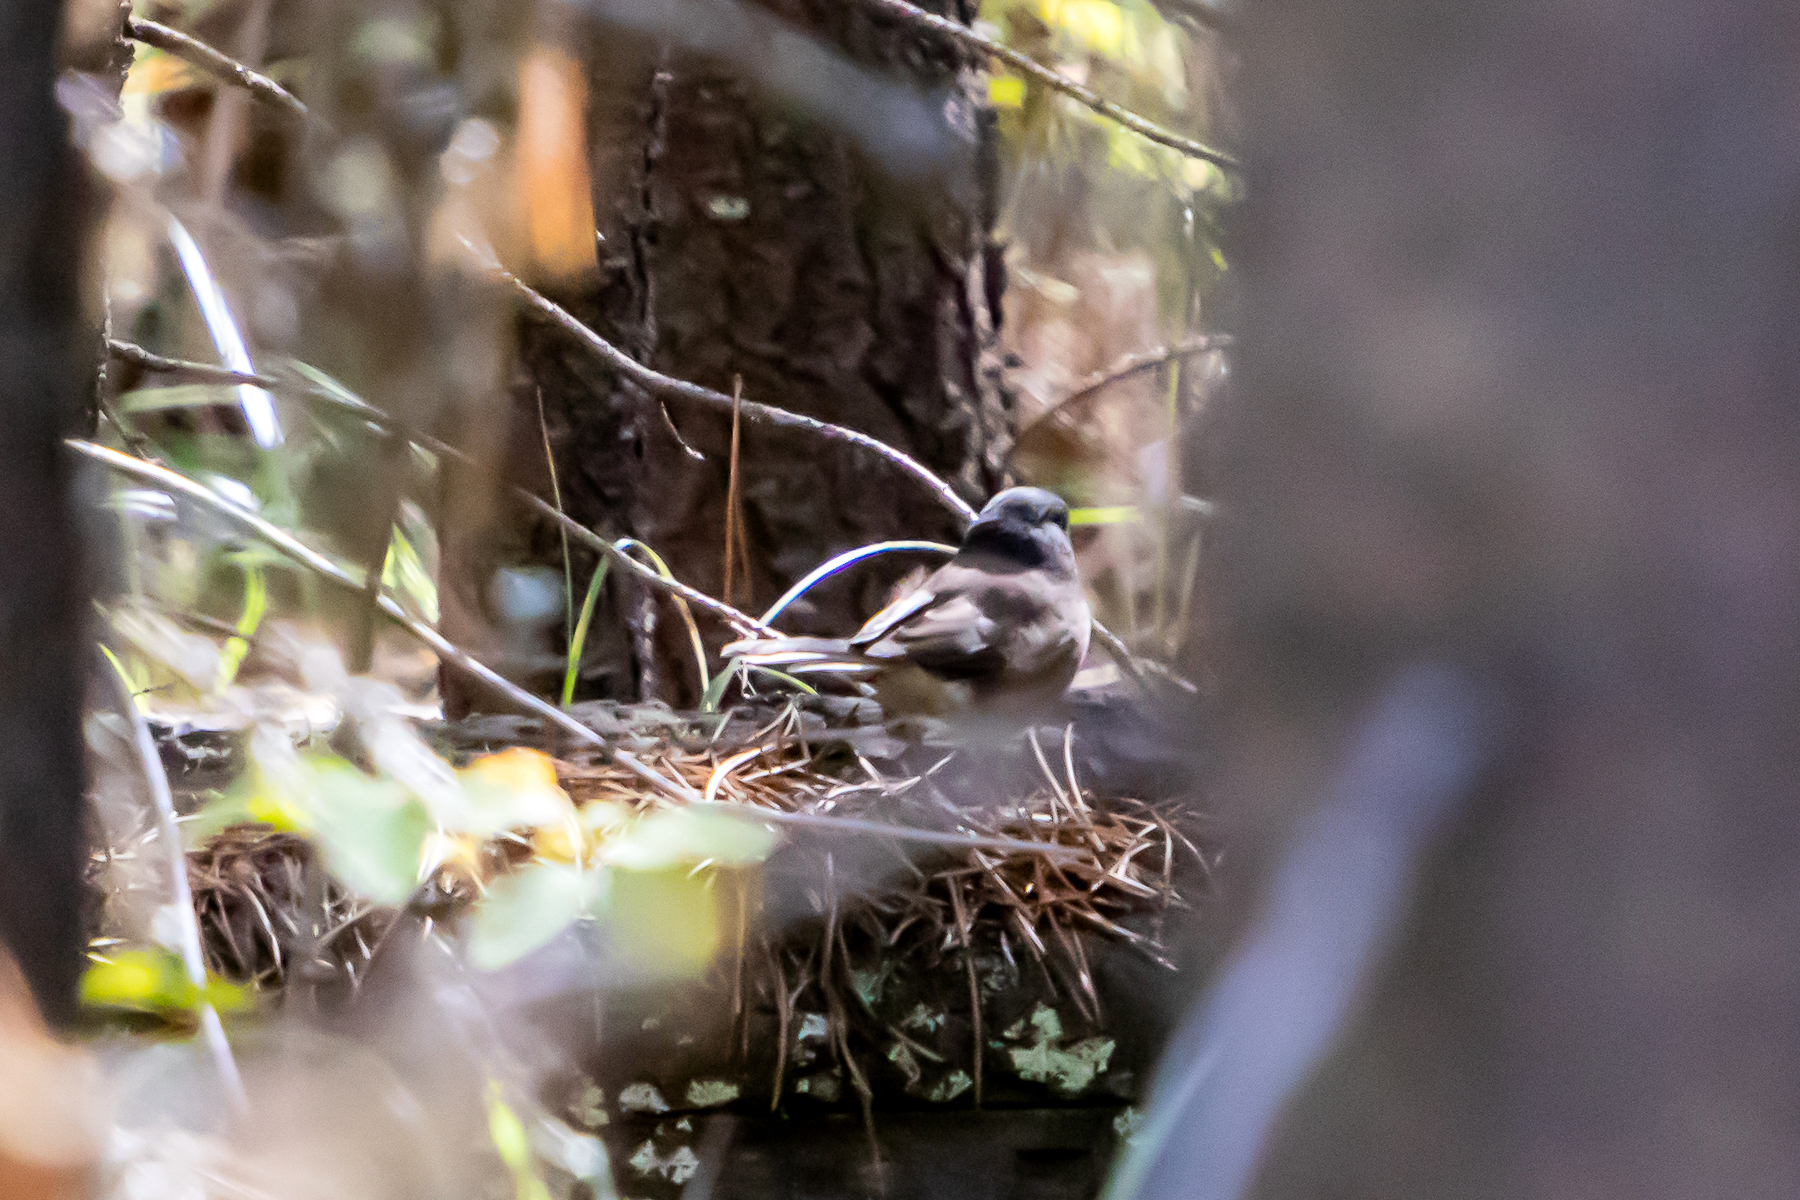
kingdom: Animalia
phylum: Chordata
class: Aves
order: Passeriformes
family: Passerellidae
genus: Junco
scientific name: Junco hyemalis
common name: Dark-eyed junco
